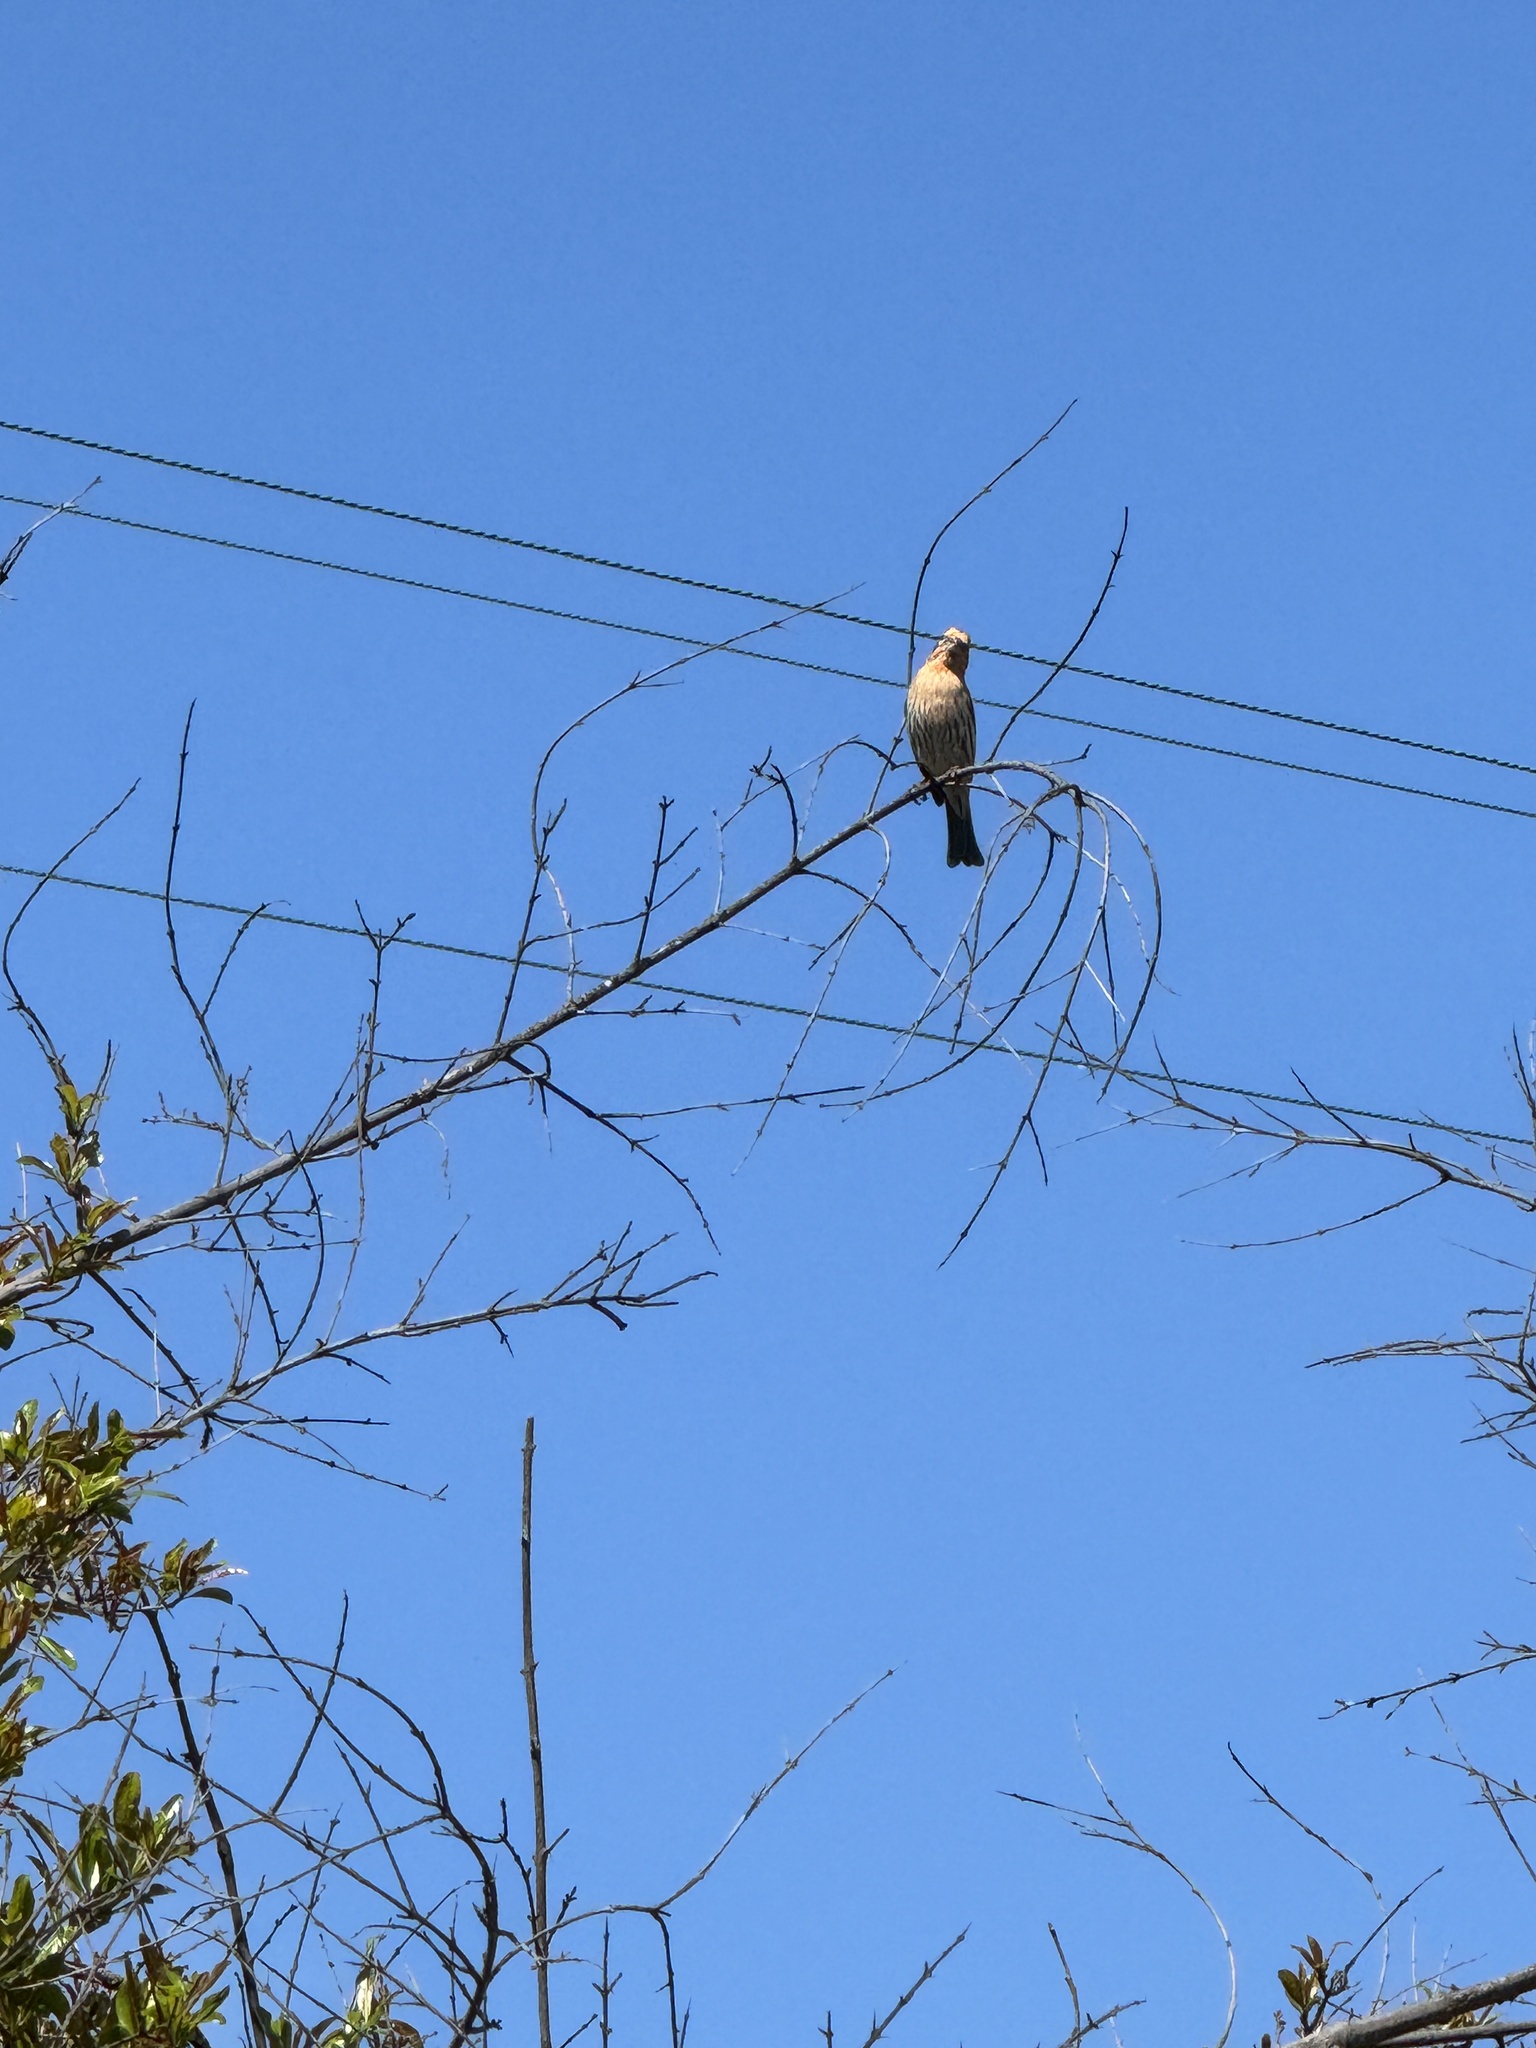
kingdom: Animalia
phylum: Chordata
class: Aves
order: Passeriformes
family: Fringillidae
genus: Haemorhous
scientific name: Haemorhous mexicanus
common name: House finch
